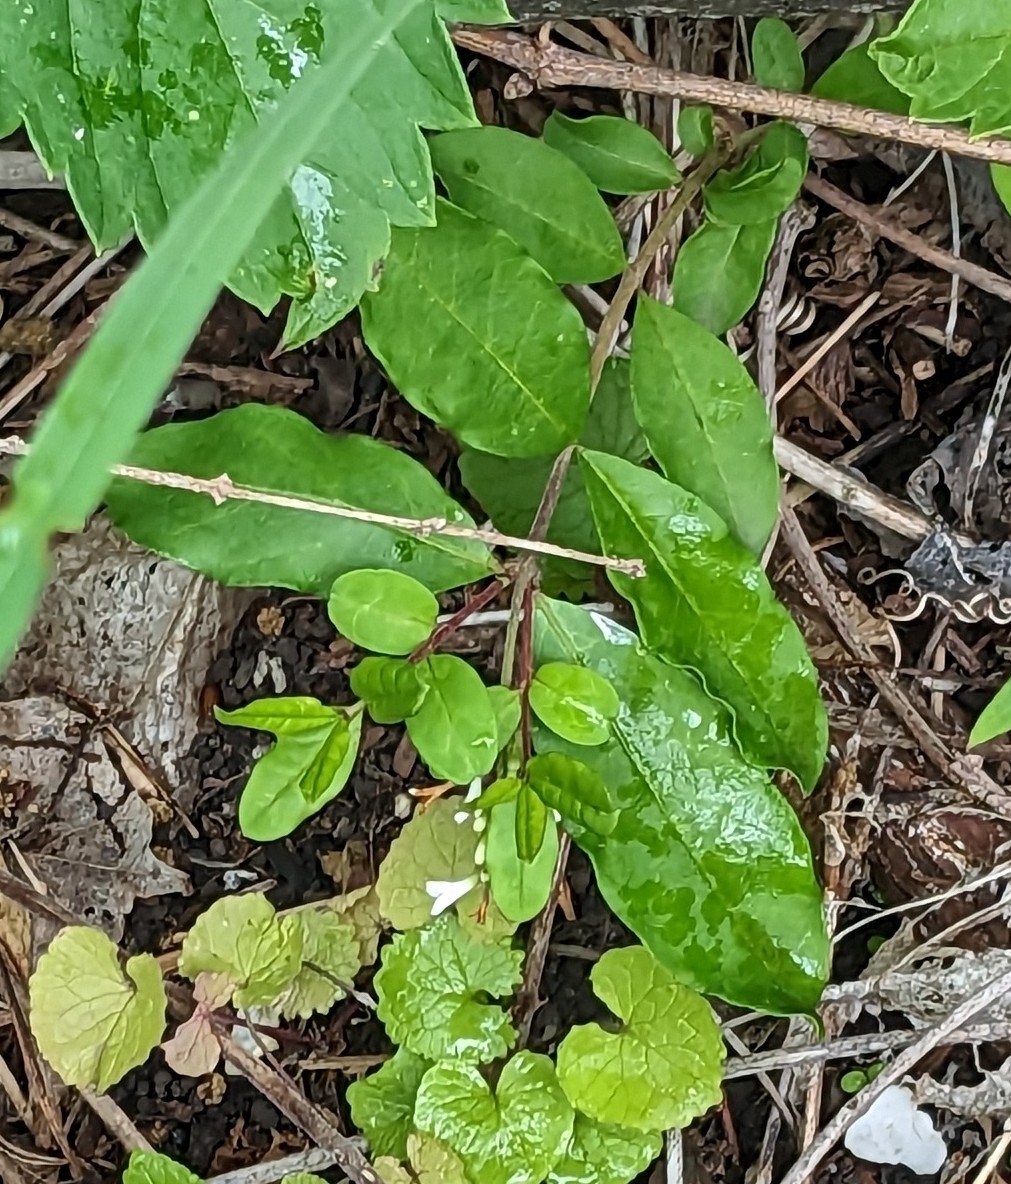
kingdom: Plantae
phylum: Tracheophyta
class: Magnoliopsida
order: Lamiales
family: Oleaceae
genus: Ligustrum
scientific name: Ligustrum obtusifolium
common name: Border privet
